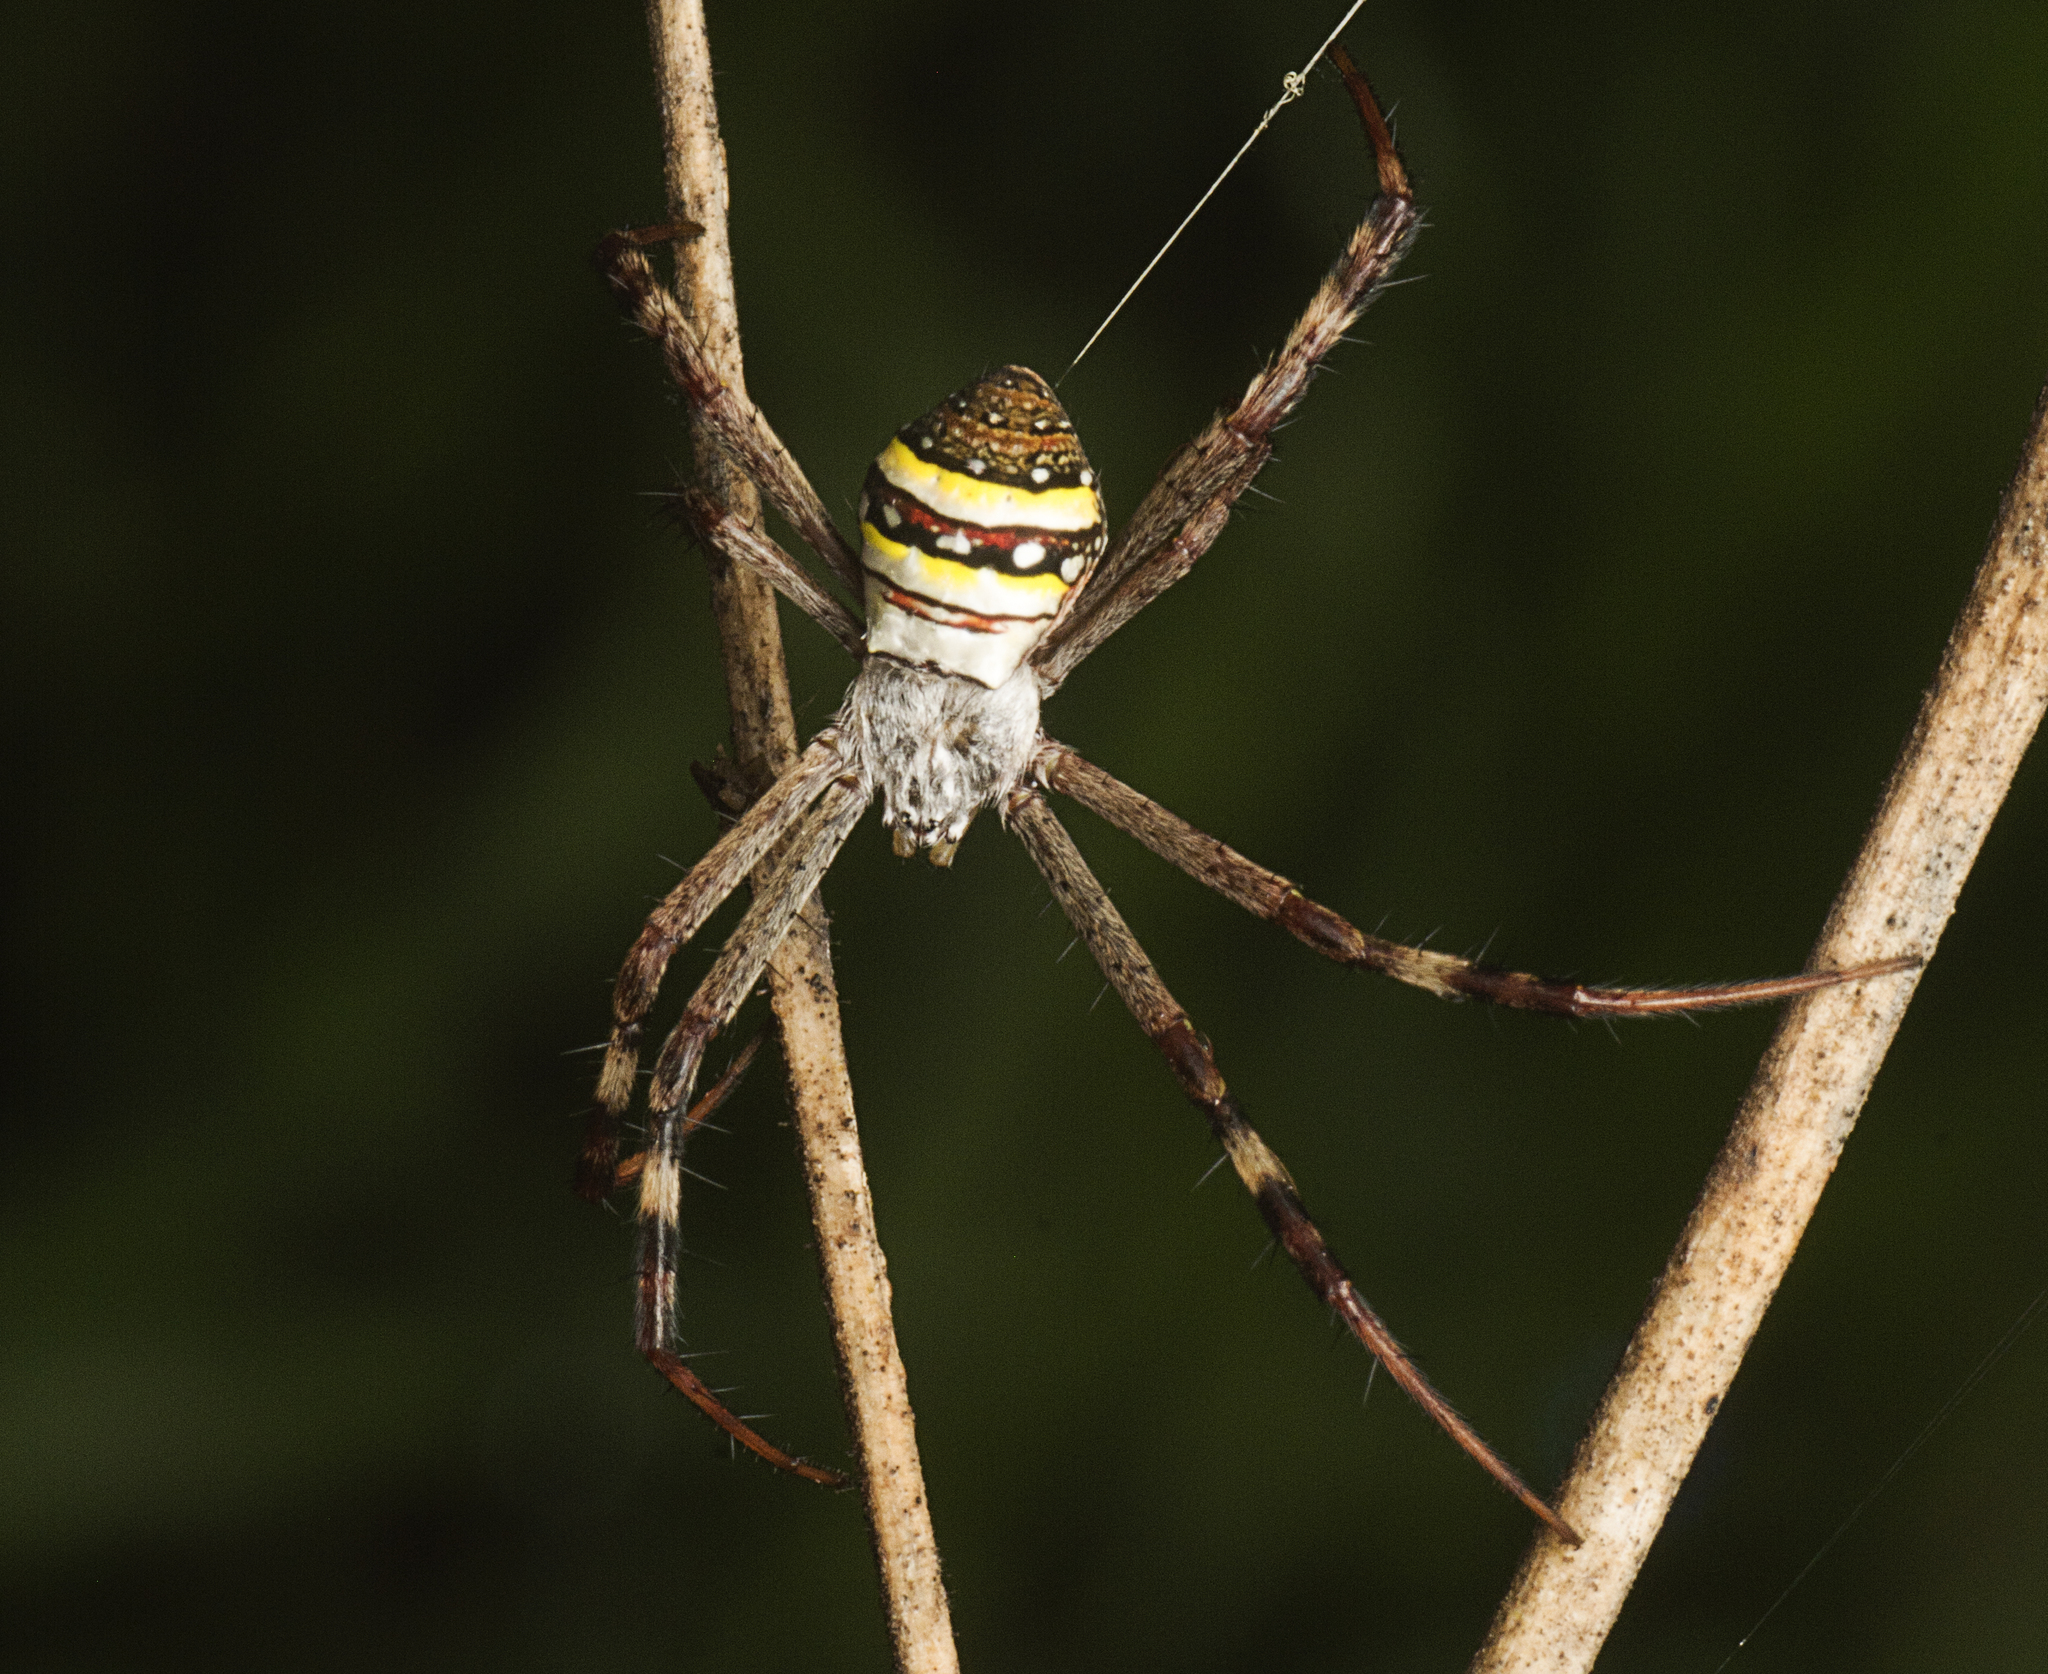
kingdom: Animalia
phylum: Arthropoda
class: Arachnida
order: Araneae
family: Araneidae
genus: Argiope
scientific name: Argiope keyserlingi
